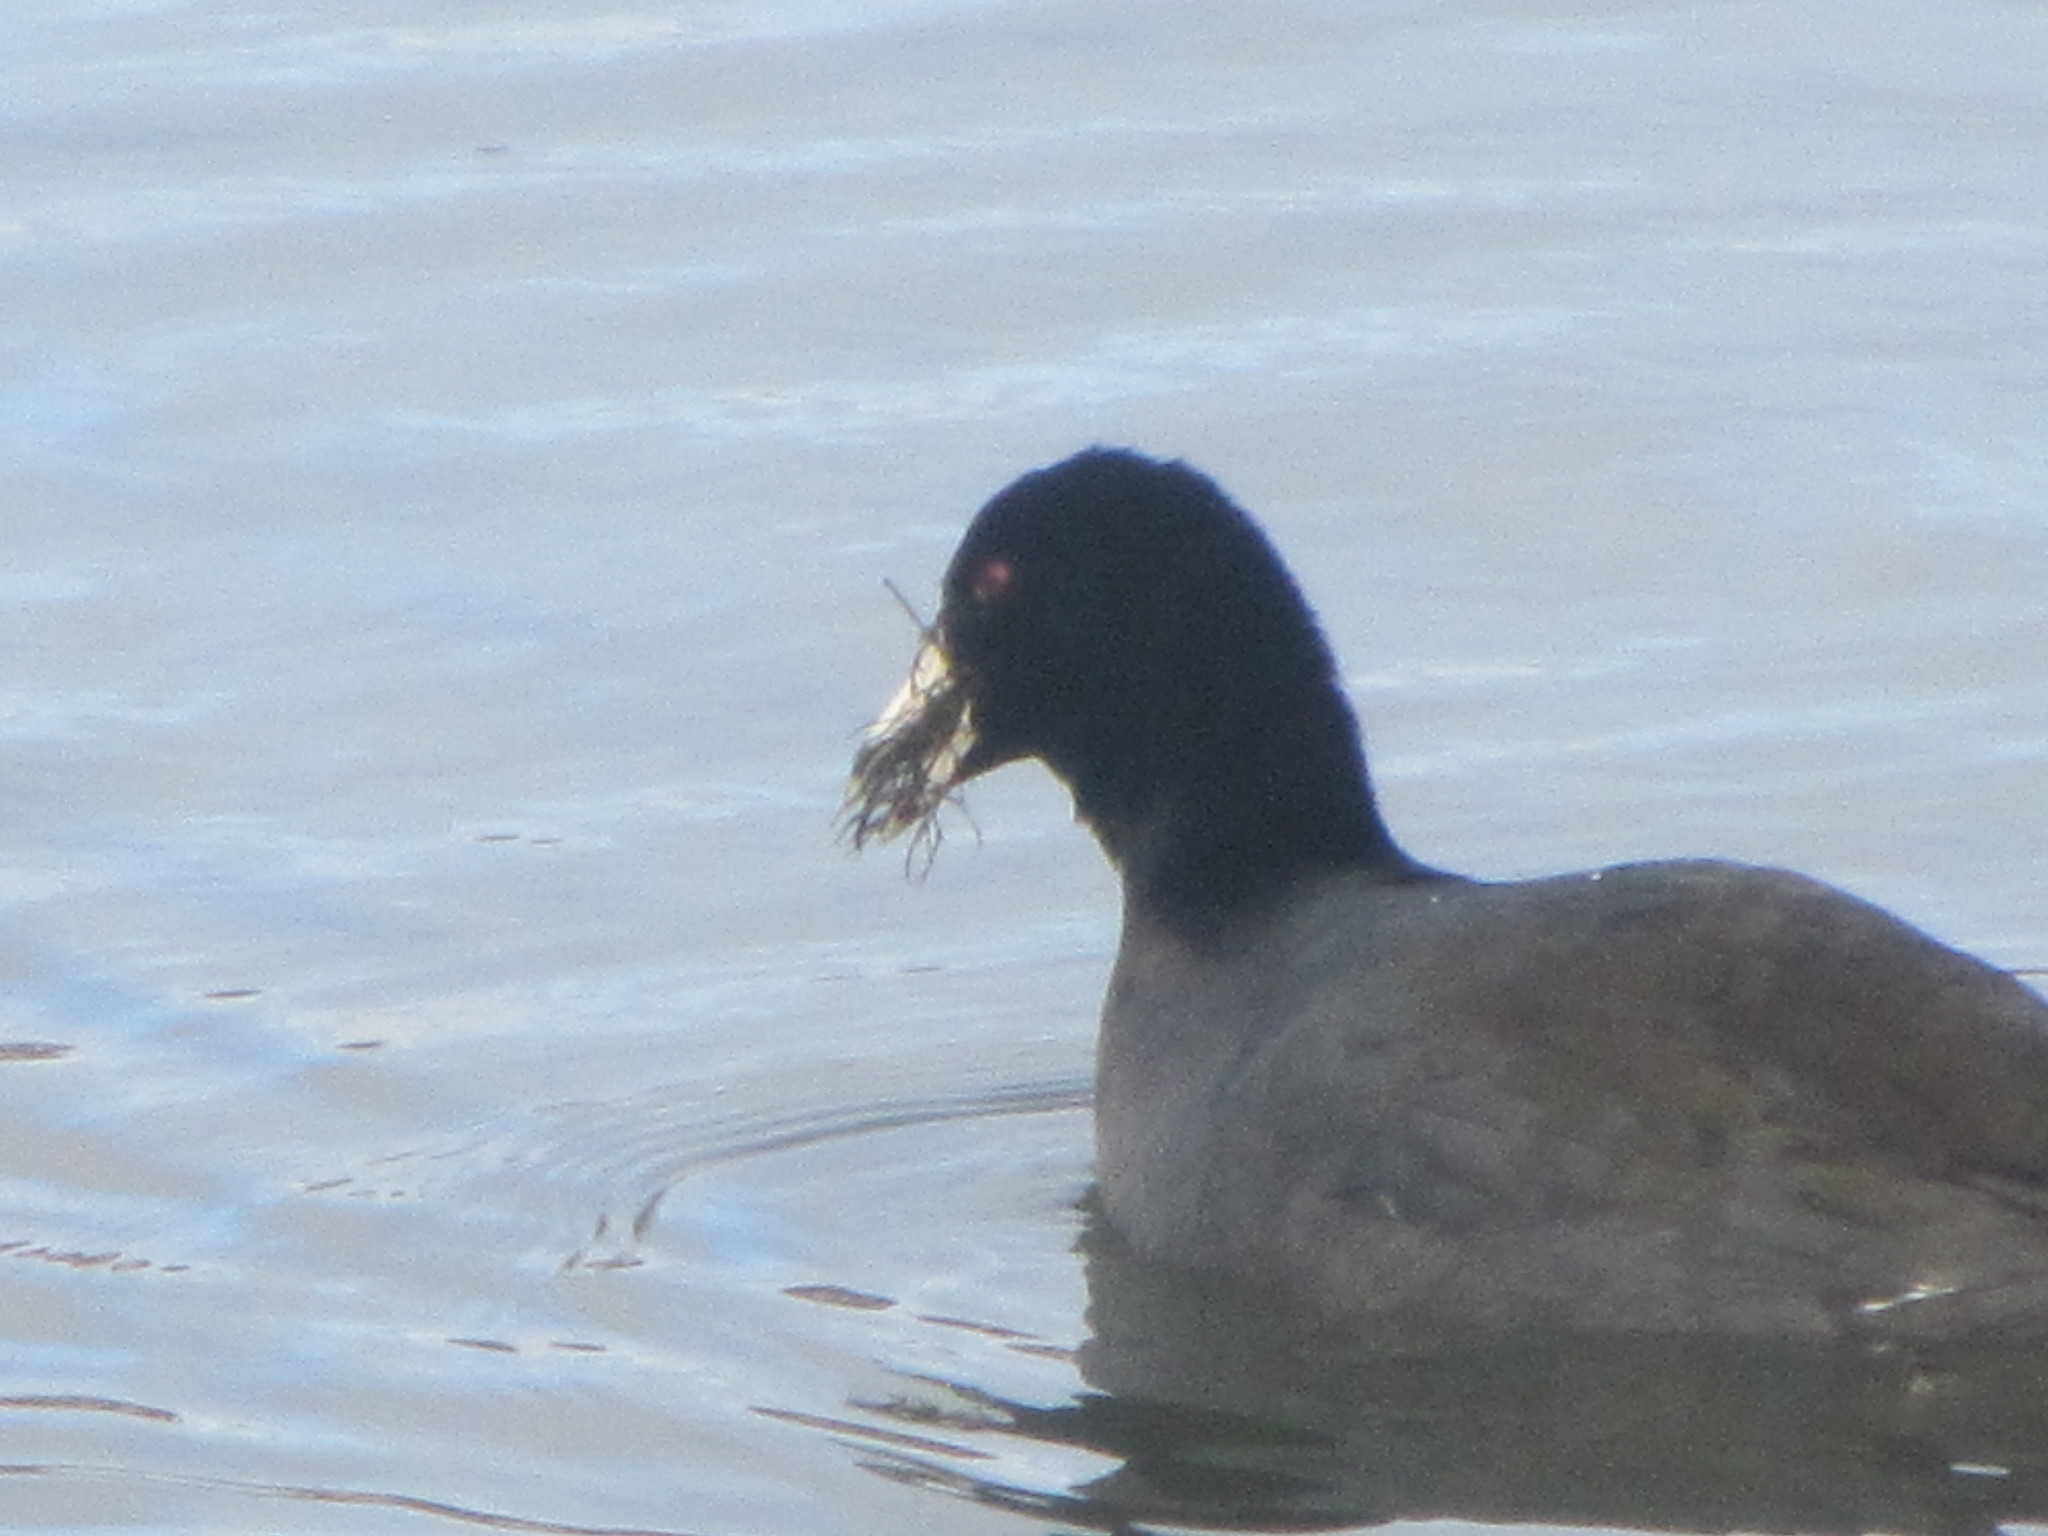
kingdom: Animalia
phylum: Chordata
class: Aves
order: Gruiformes
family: Rallidae
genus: Fulica
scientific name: Fulica americana
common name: American coot
